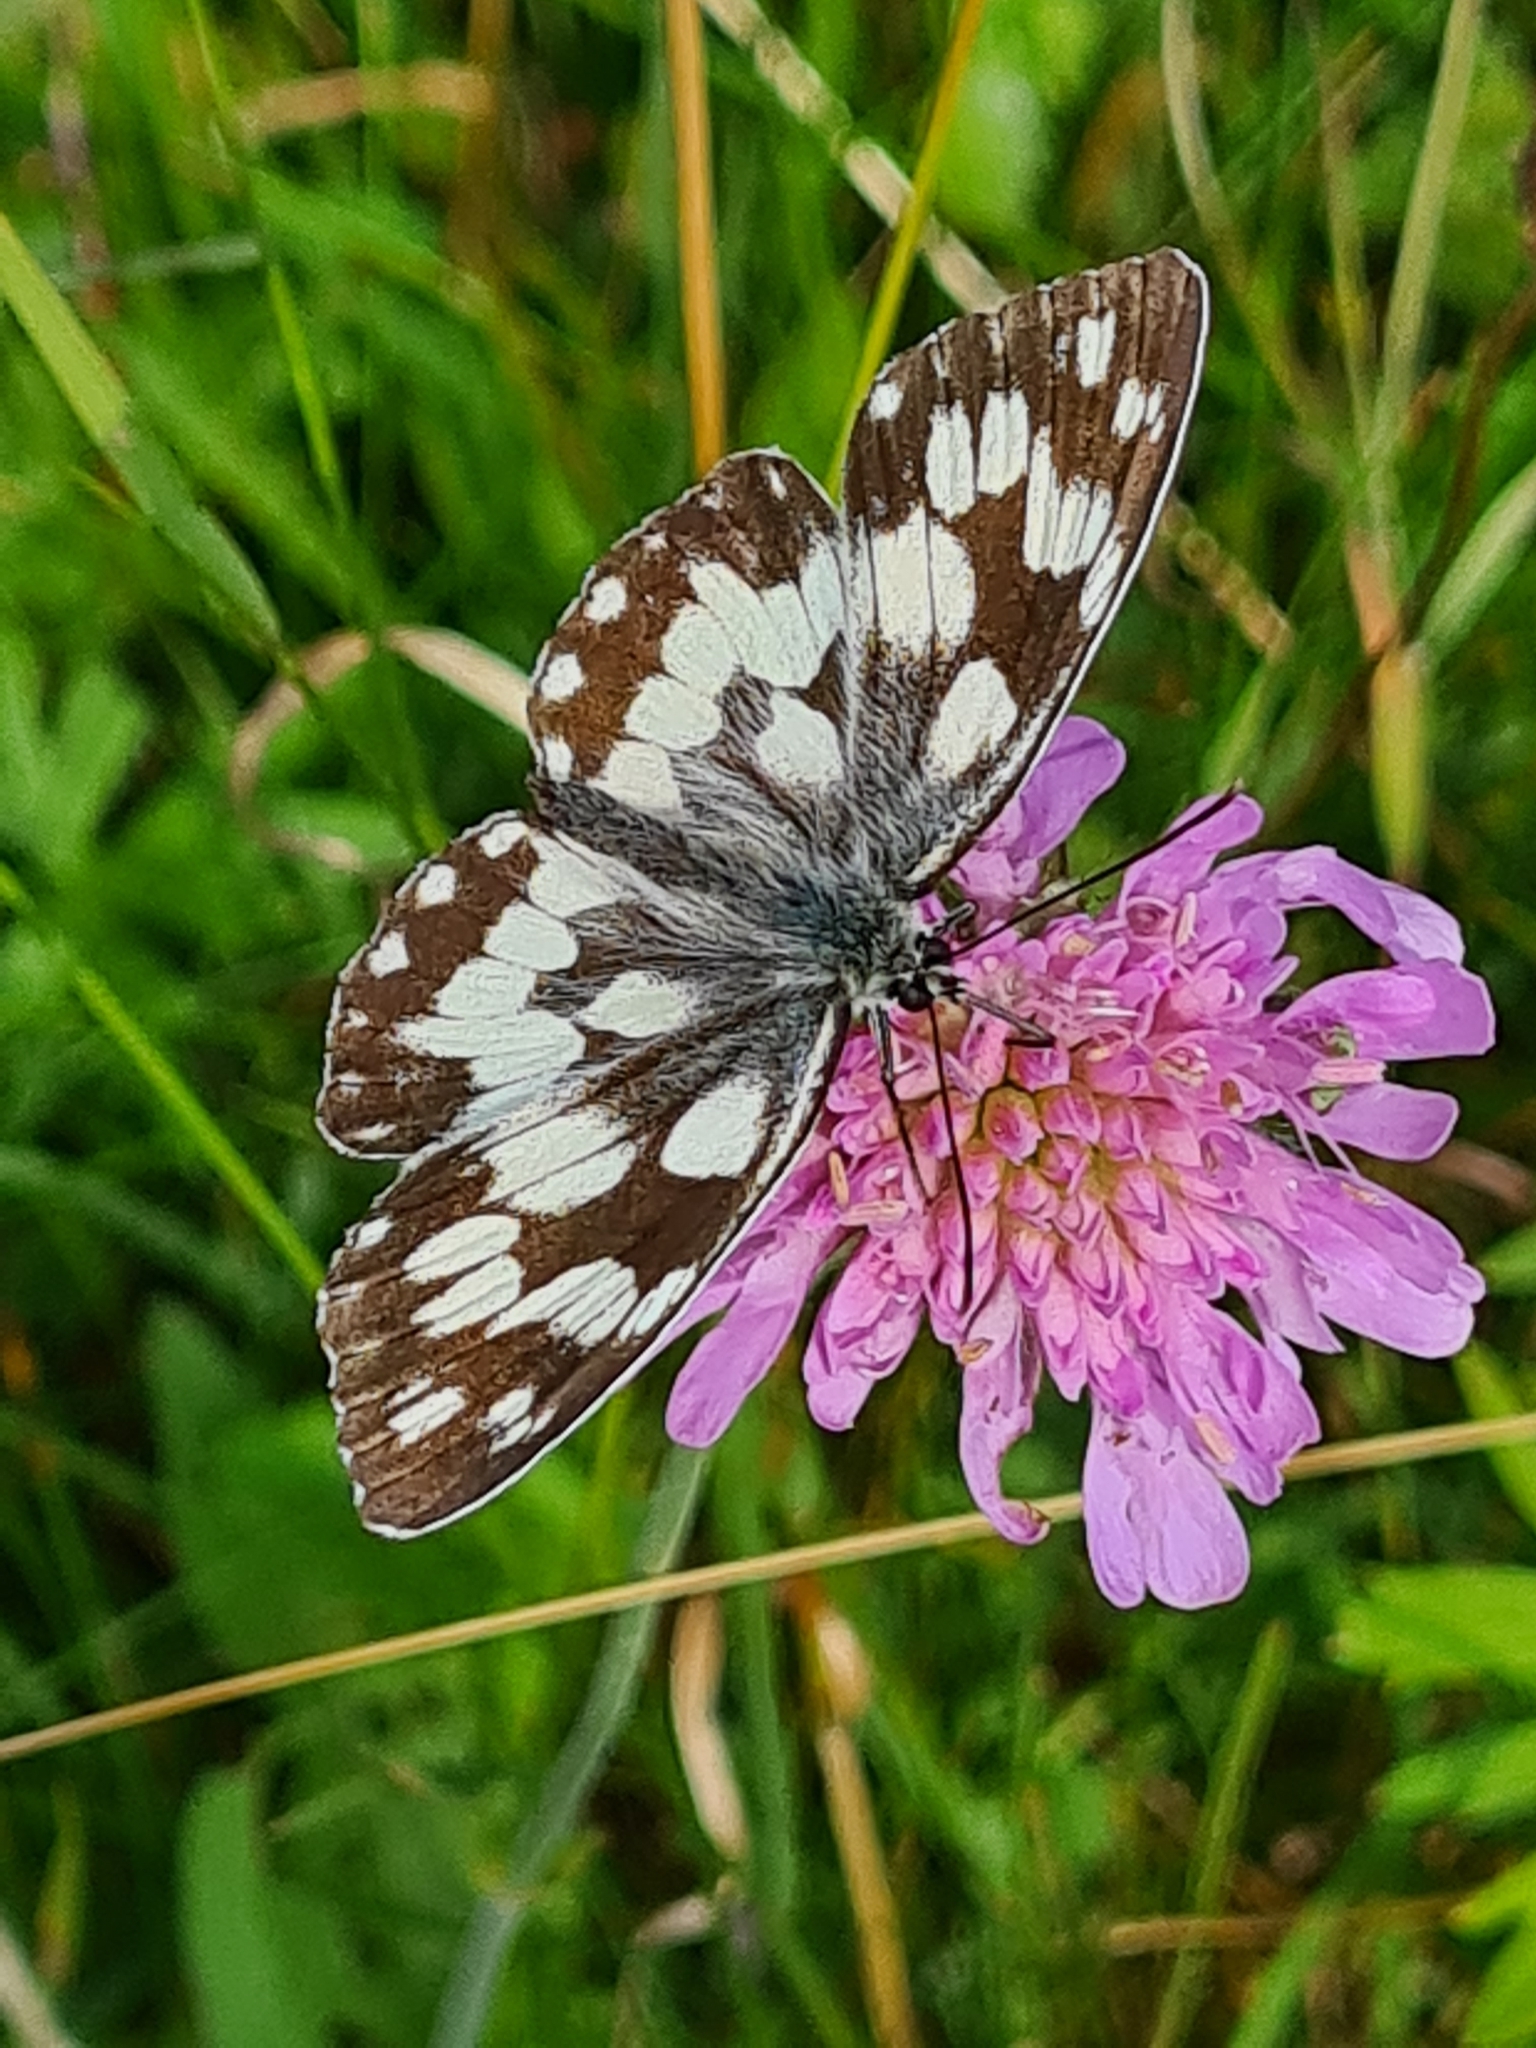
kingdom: Animalia
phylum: Arthropoda
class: Insecta
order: Lepidoptera
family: Nymphalidae
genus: Melanargia
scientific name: Melanargia galathea
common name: Marbled white
